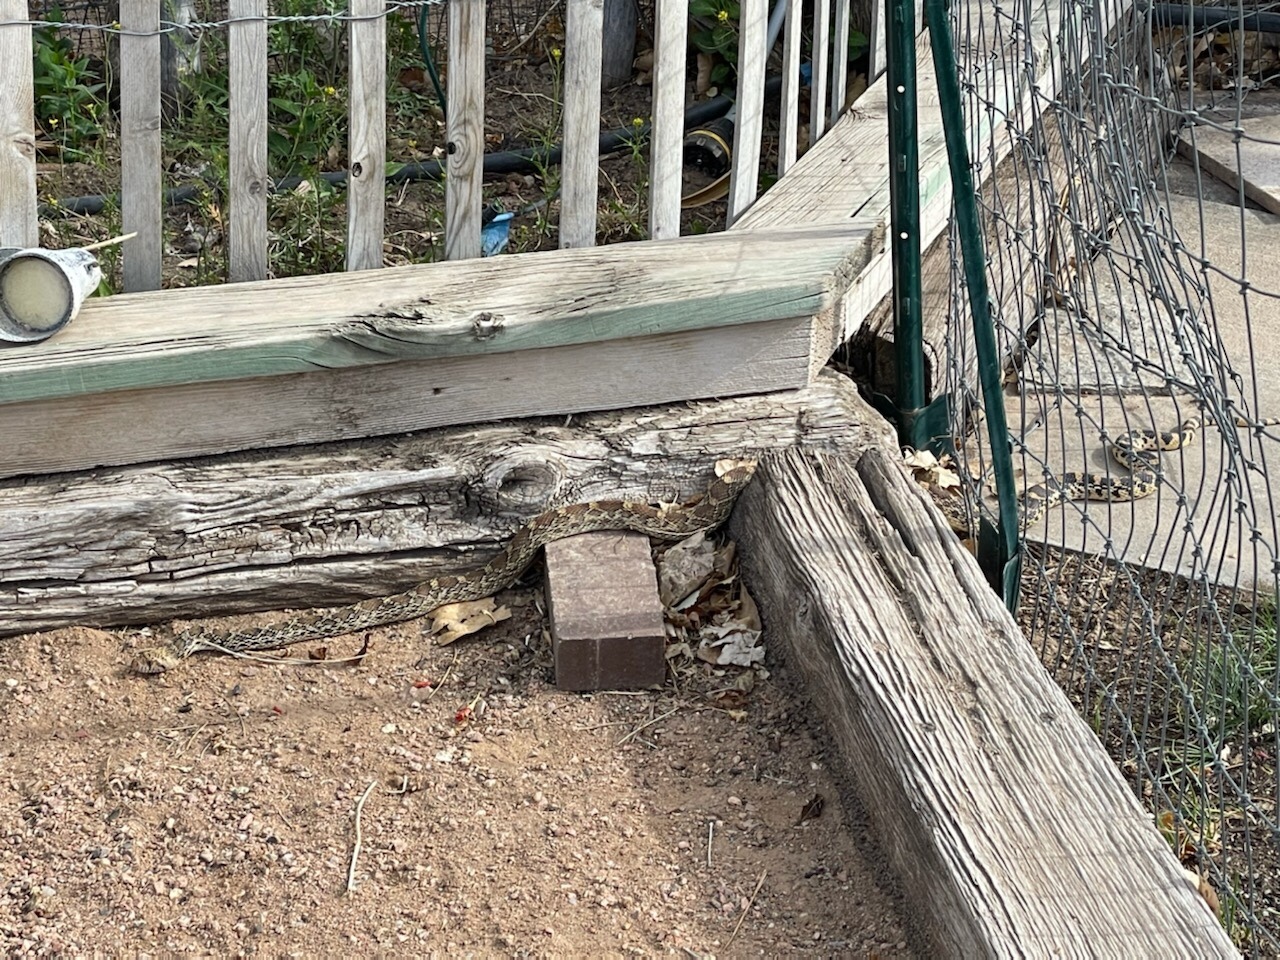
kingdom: Animalia
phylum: Chordata
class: Squamata
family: Colubridae
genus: Pituophis
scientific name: Pituophis catenifer
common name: Gopher snake
